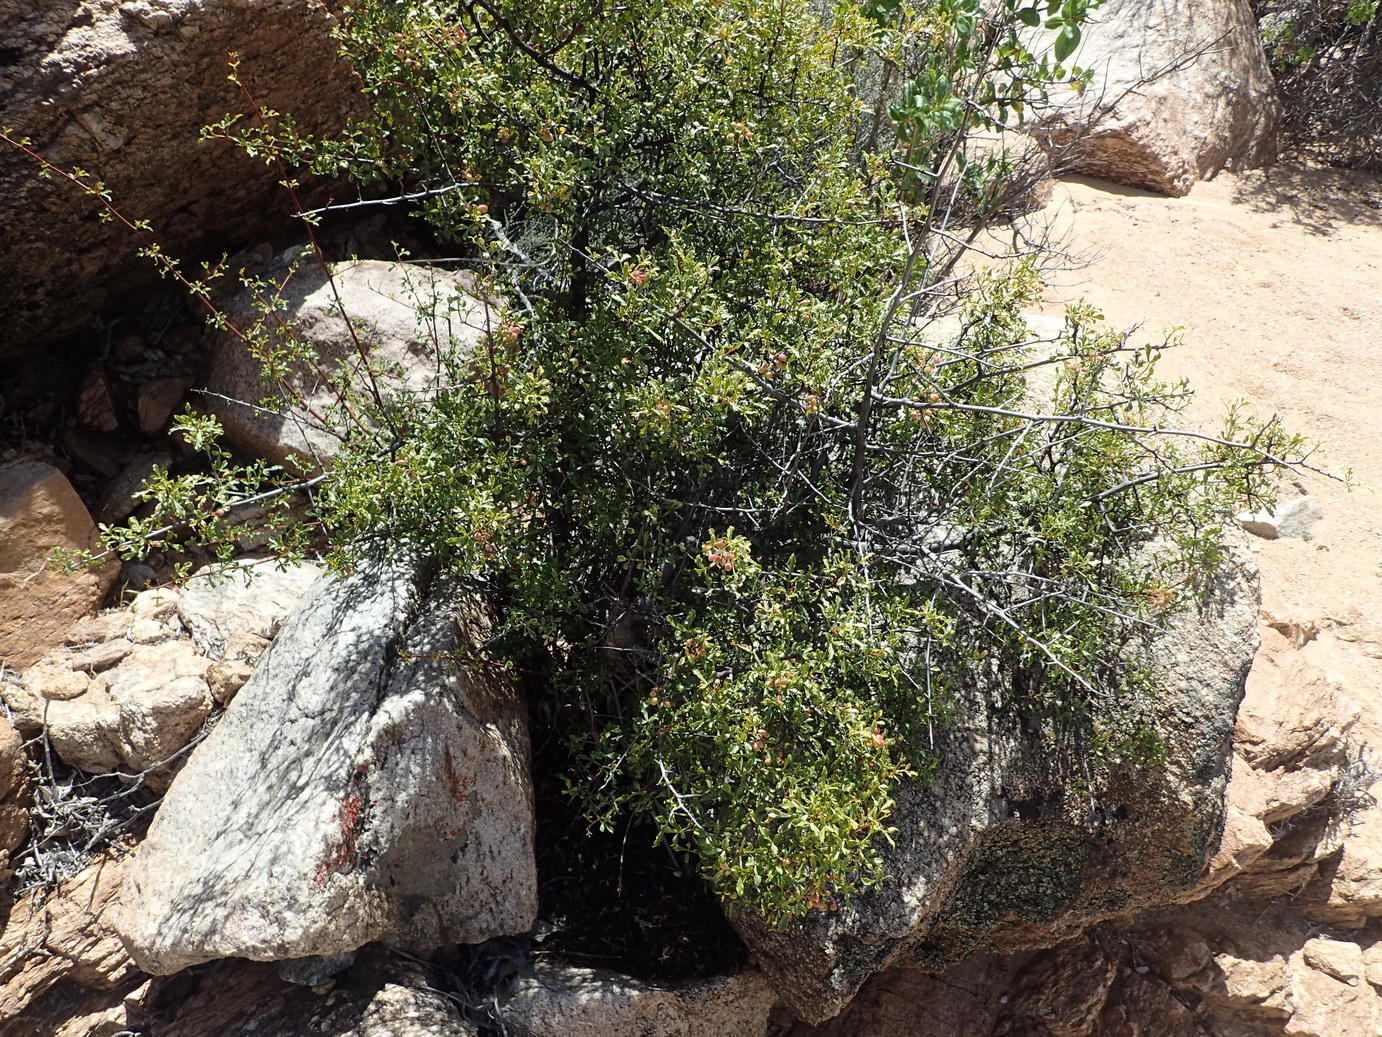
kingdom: Plantae
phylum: Tracheophyta
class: Magnoliopsida
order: Sapindales
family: Anacardiaceae
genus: Searsia
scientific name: Searsia undulata
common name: Namaqua kunibush
